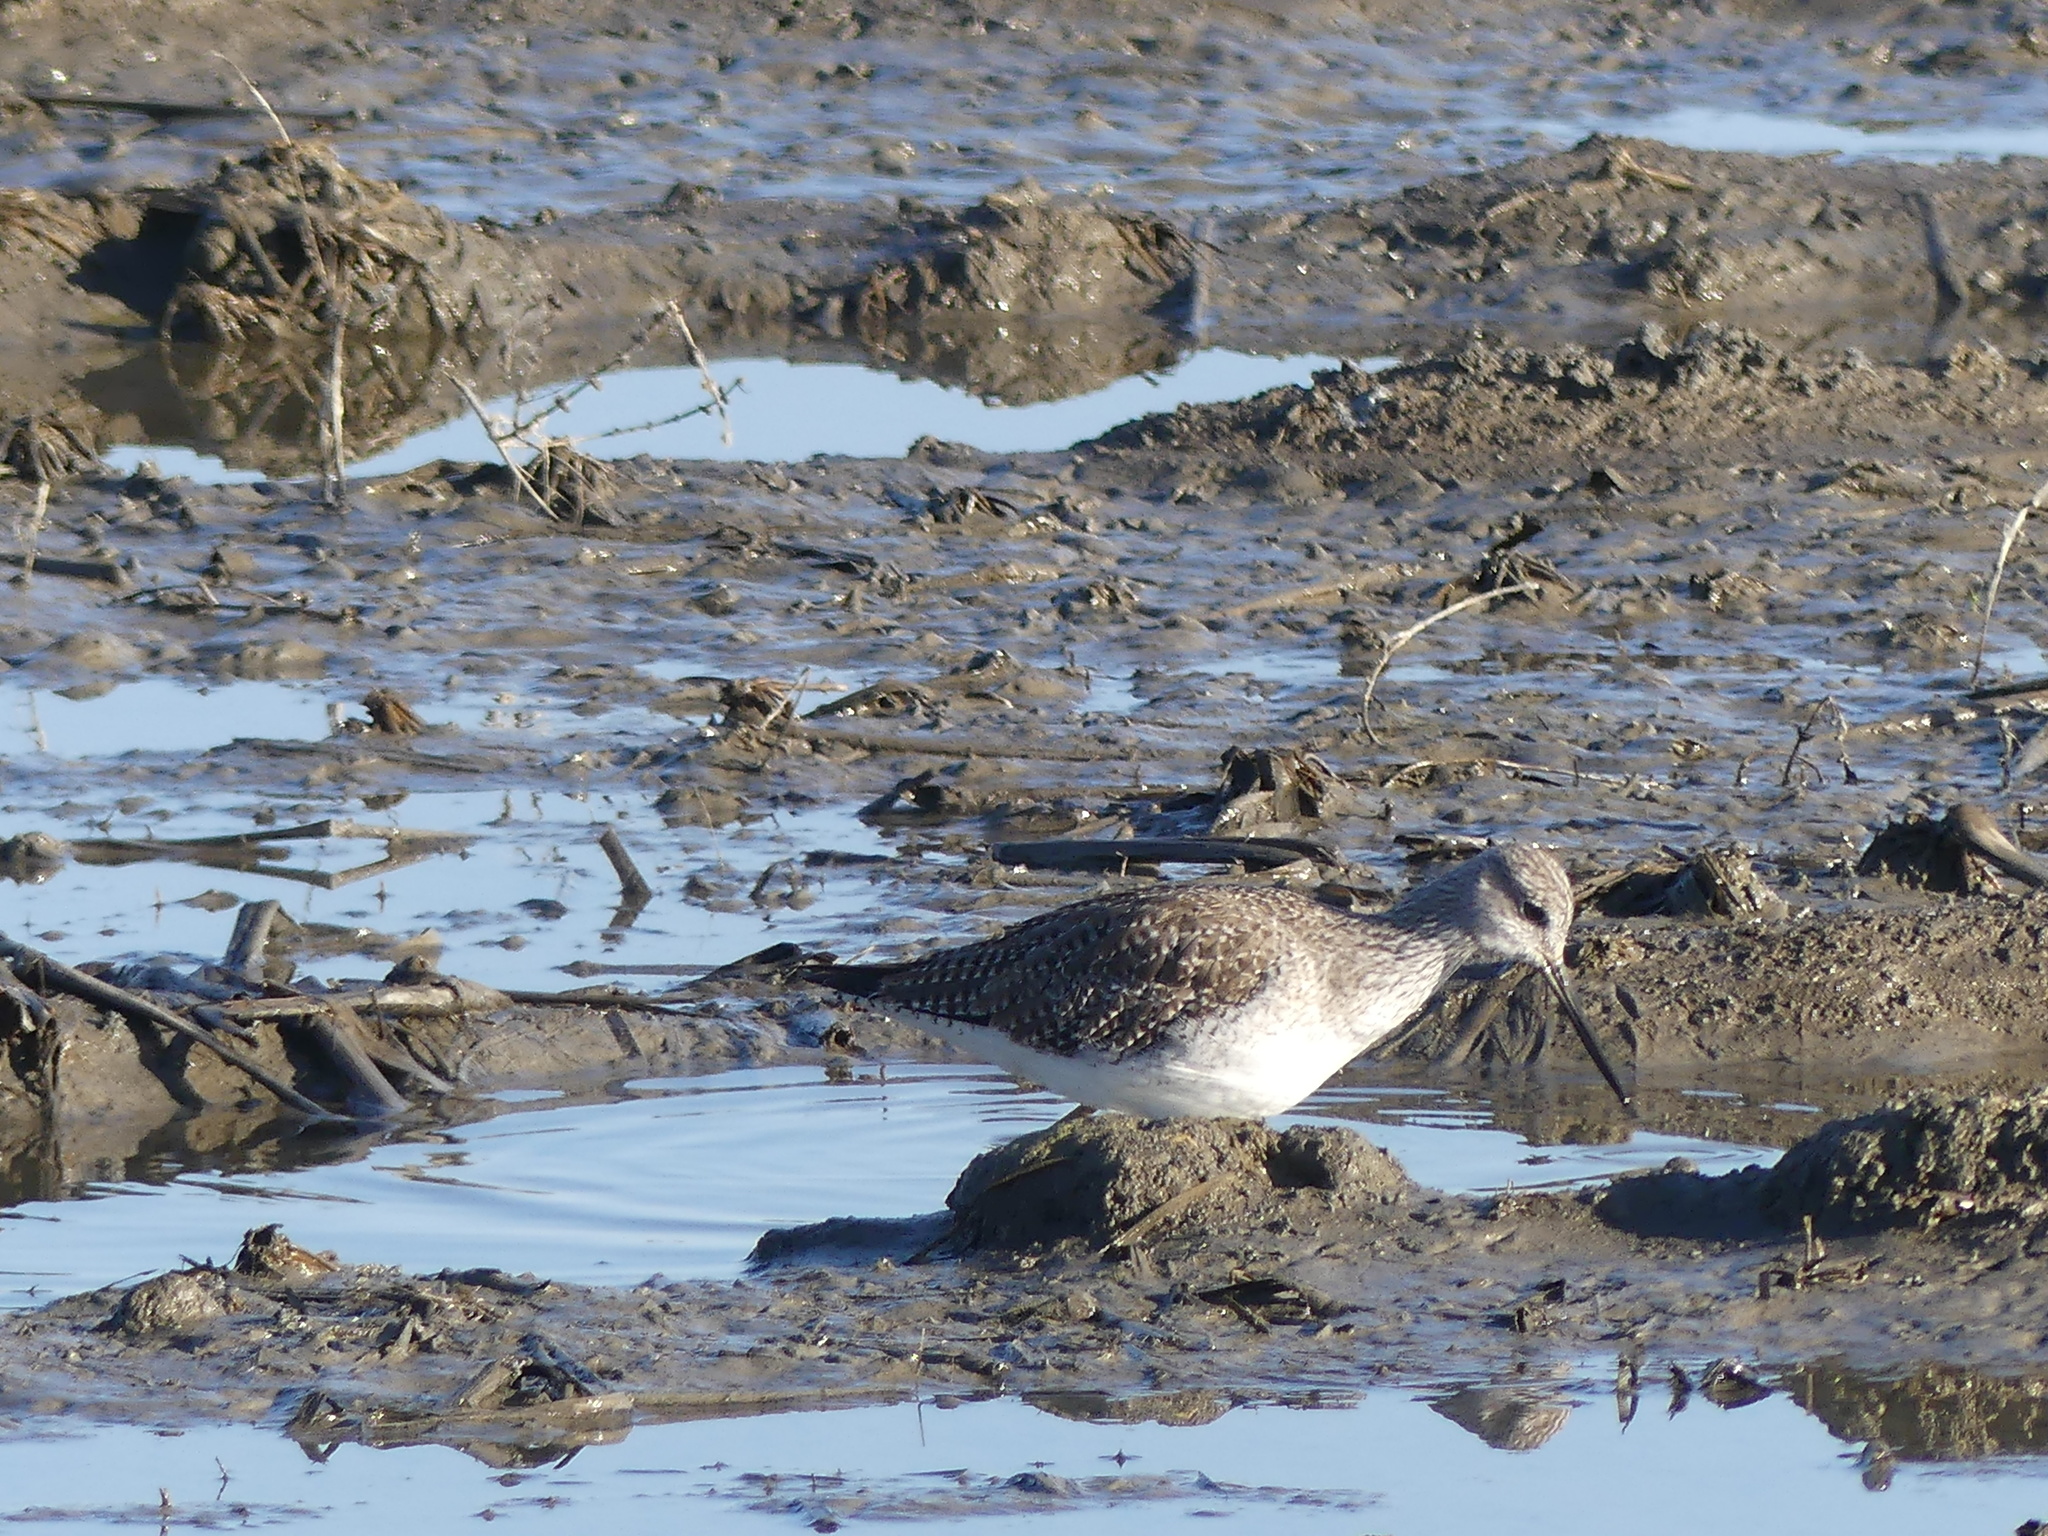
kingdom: Animalia
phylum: Chordata
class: Aves
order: Charadriiformes
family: Scolopacidae
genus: Tringa
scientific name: Tringa melanoleuca
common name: Greater yellowlegs
